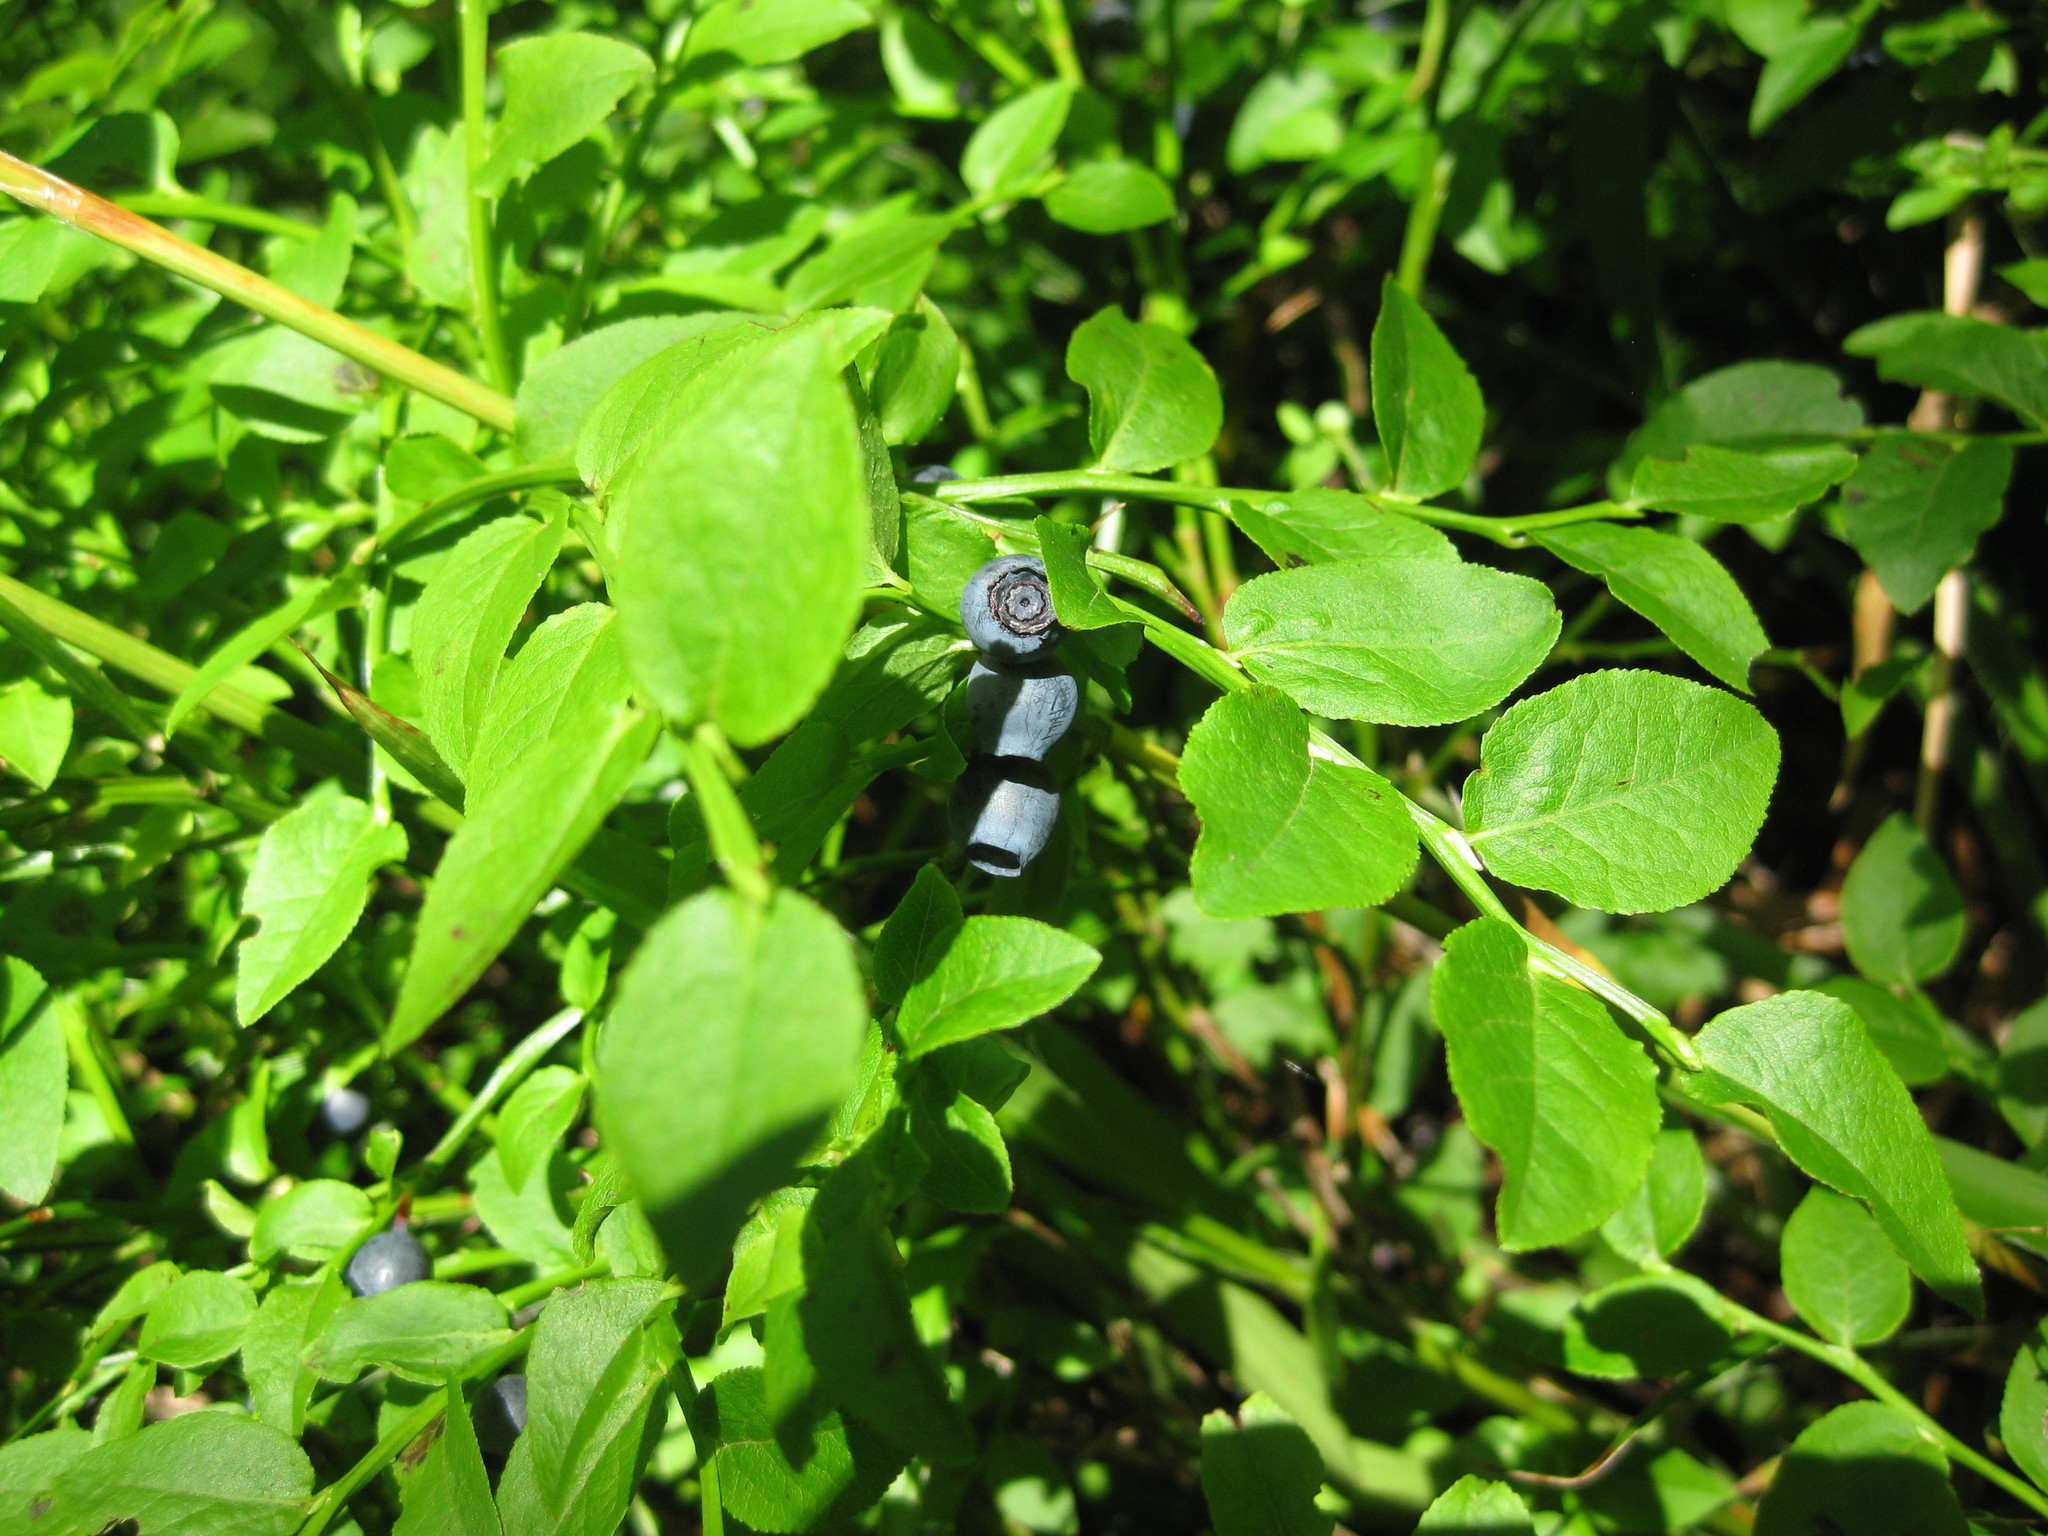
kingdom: Plantae
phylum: Tracheophyta
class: Magnoliopsida
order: Ericales
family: Ericaceae
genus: Vaccinium
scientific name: Vaccinium myrtillus
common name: Bilberry
